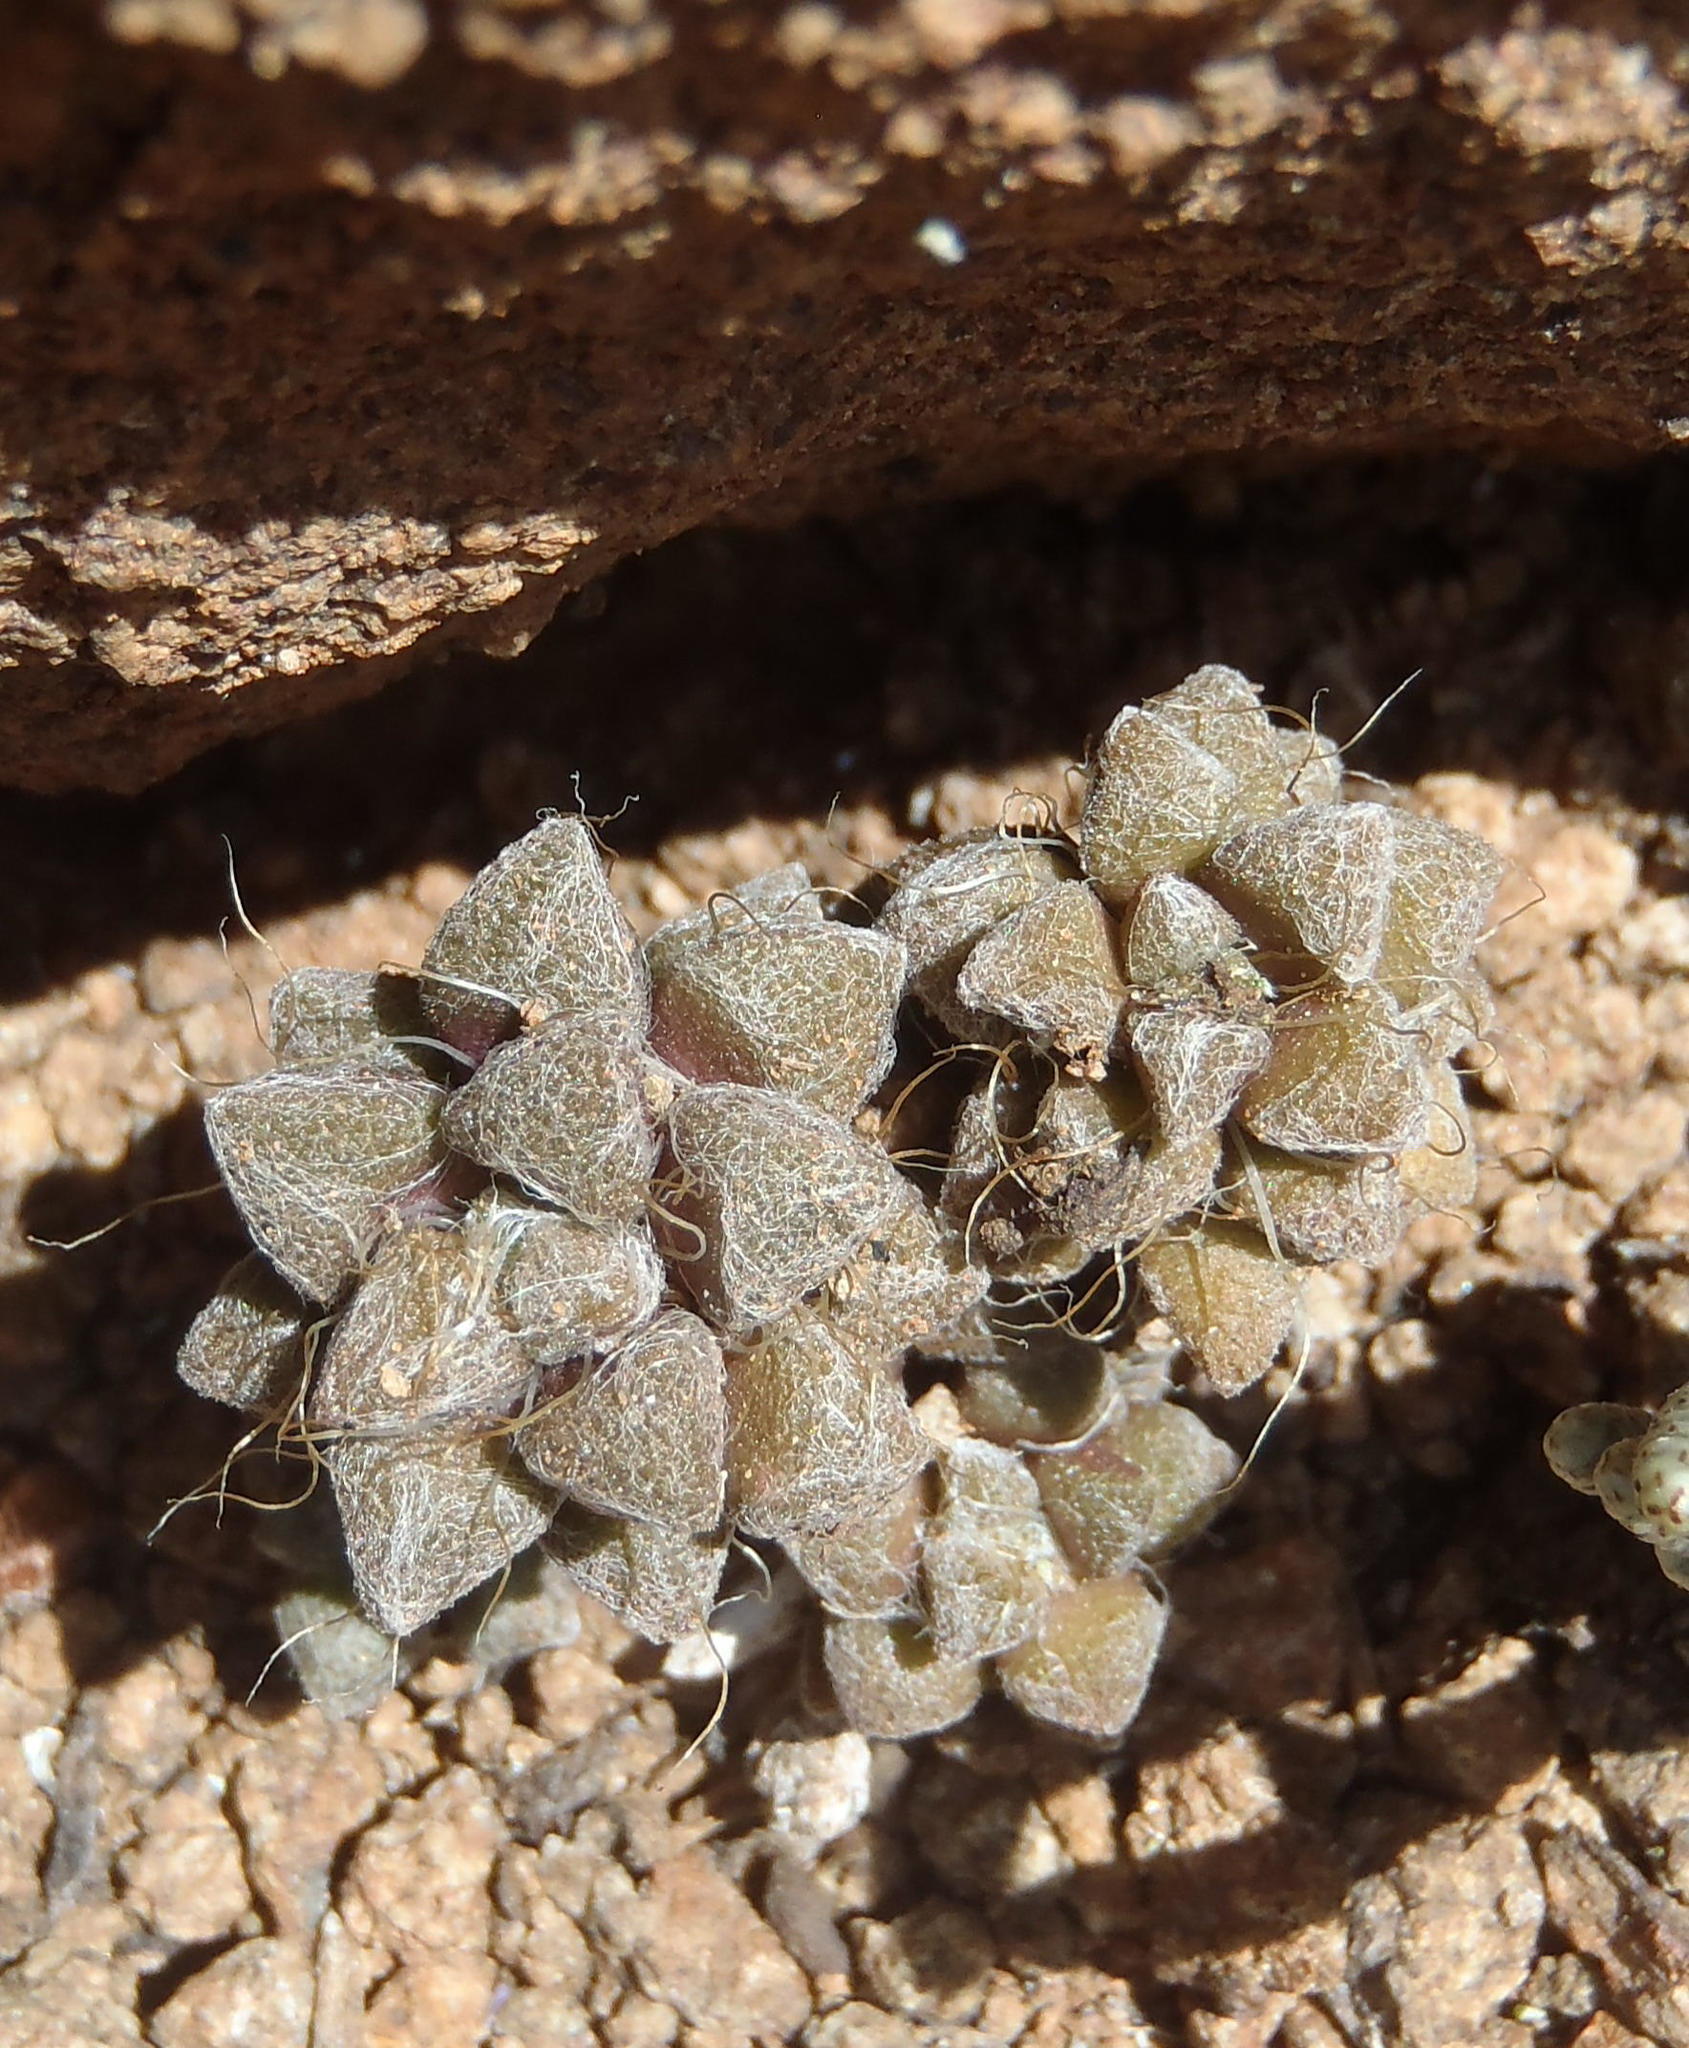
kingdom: Plantae
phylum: Tracheophyta
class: Magnoliopsida
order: Caryophyllales
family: Anacampserotaceae
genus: Anacampseros
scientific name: Anacampseros filamentosa
